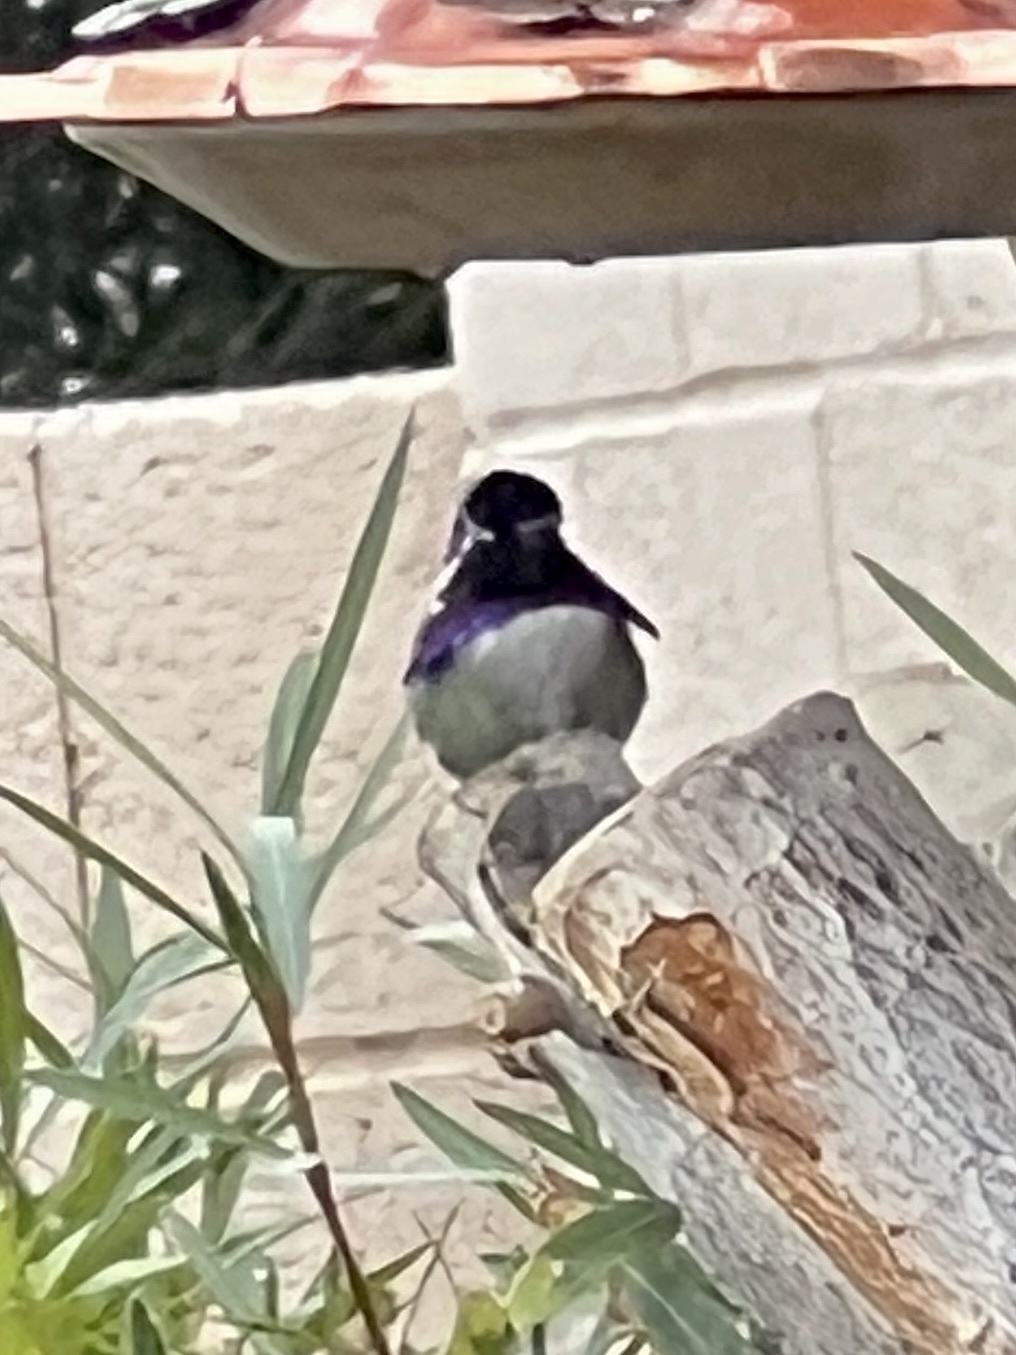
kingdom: Animalia
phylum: Chordata
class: Aves
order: Apodiformes
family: Trochilidae
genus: Calypte
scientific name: Calypte costae
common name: Costa's hummingbird
